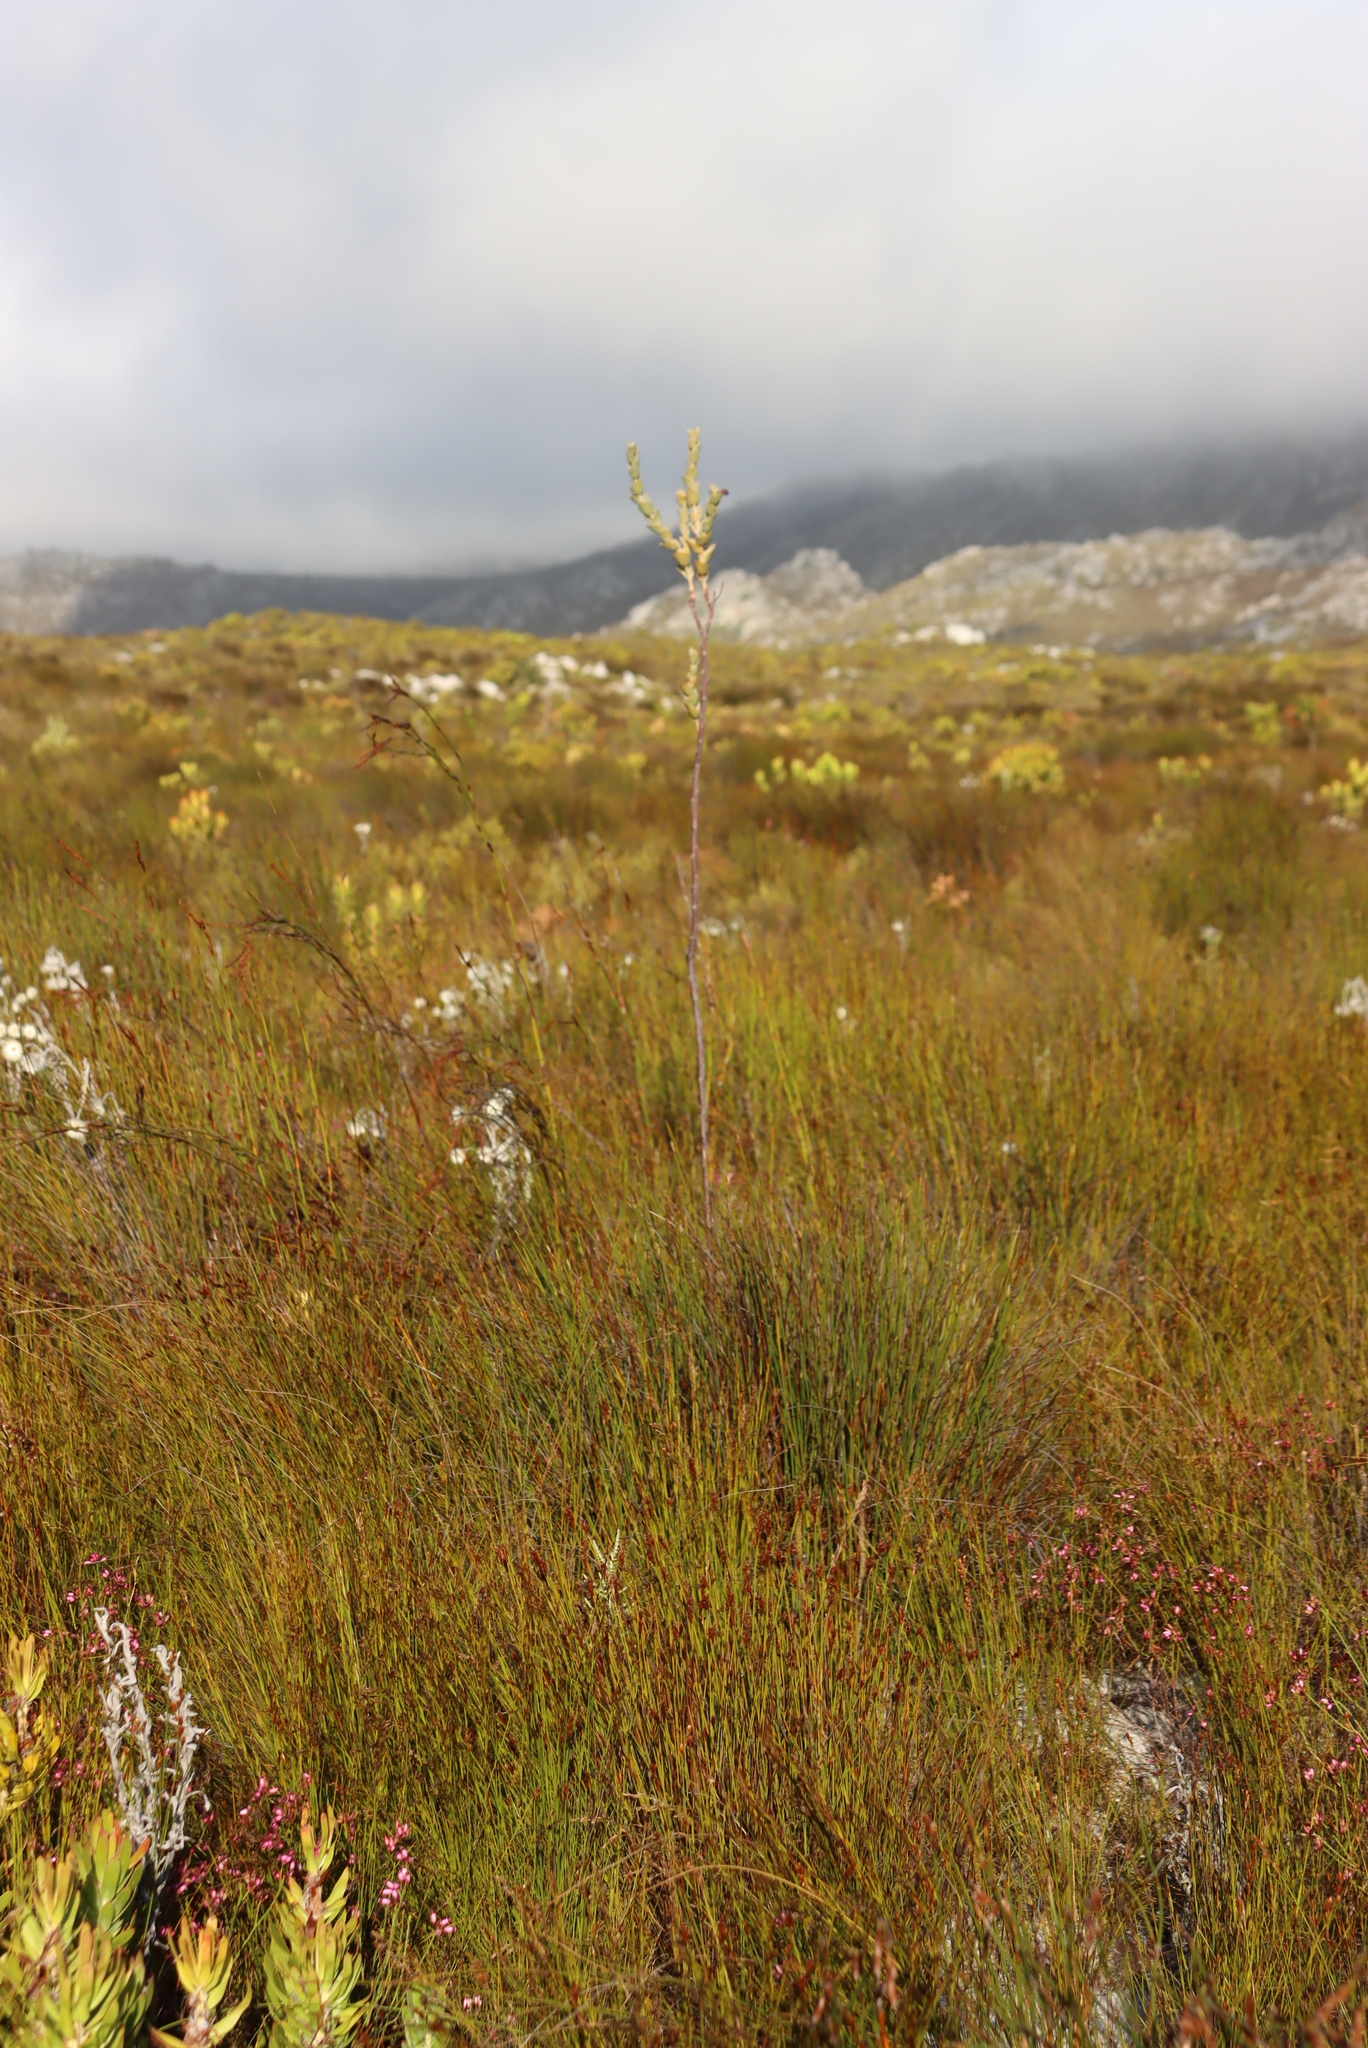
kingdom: Plantae
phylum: Tracheophyta
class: Magnoliopsida
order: Santalales
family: Thesiaceae
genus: Thesium
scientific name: Thesium euphorbioides
